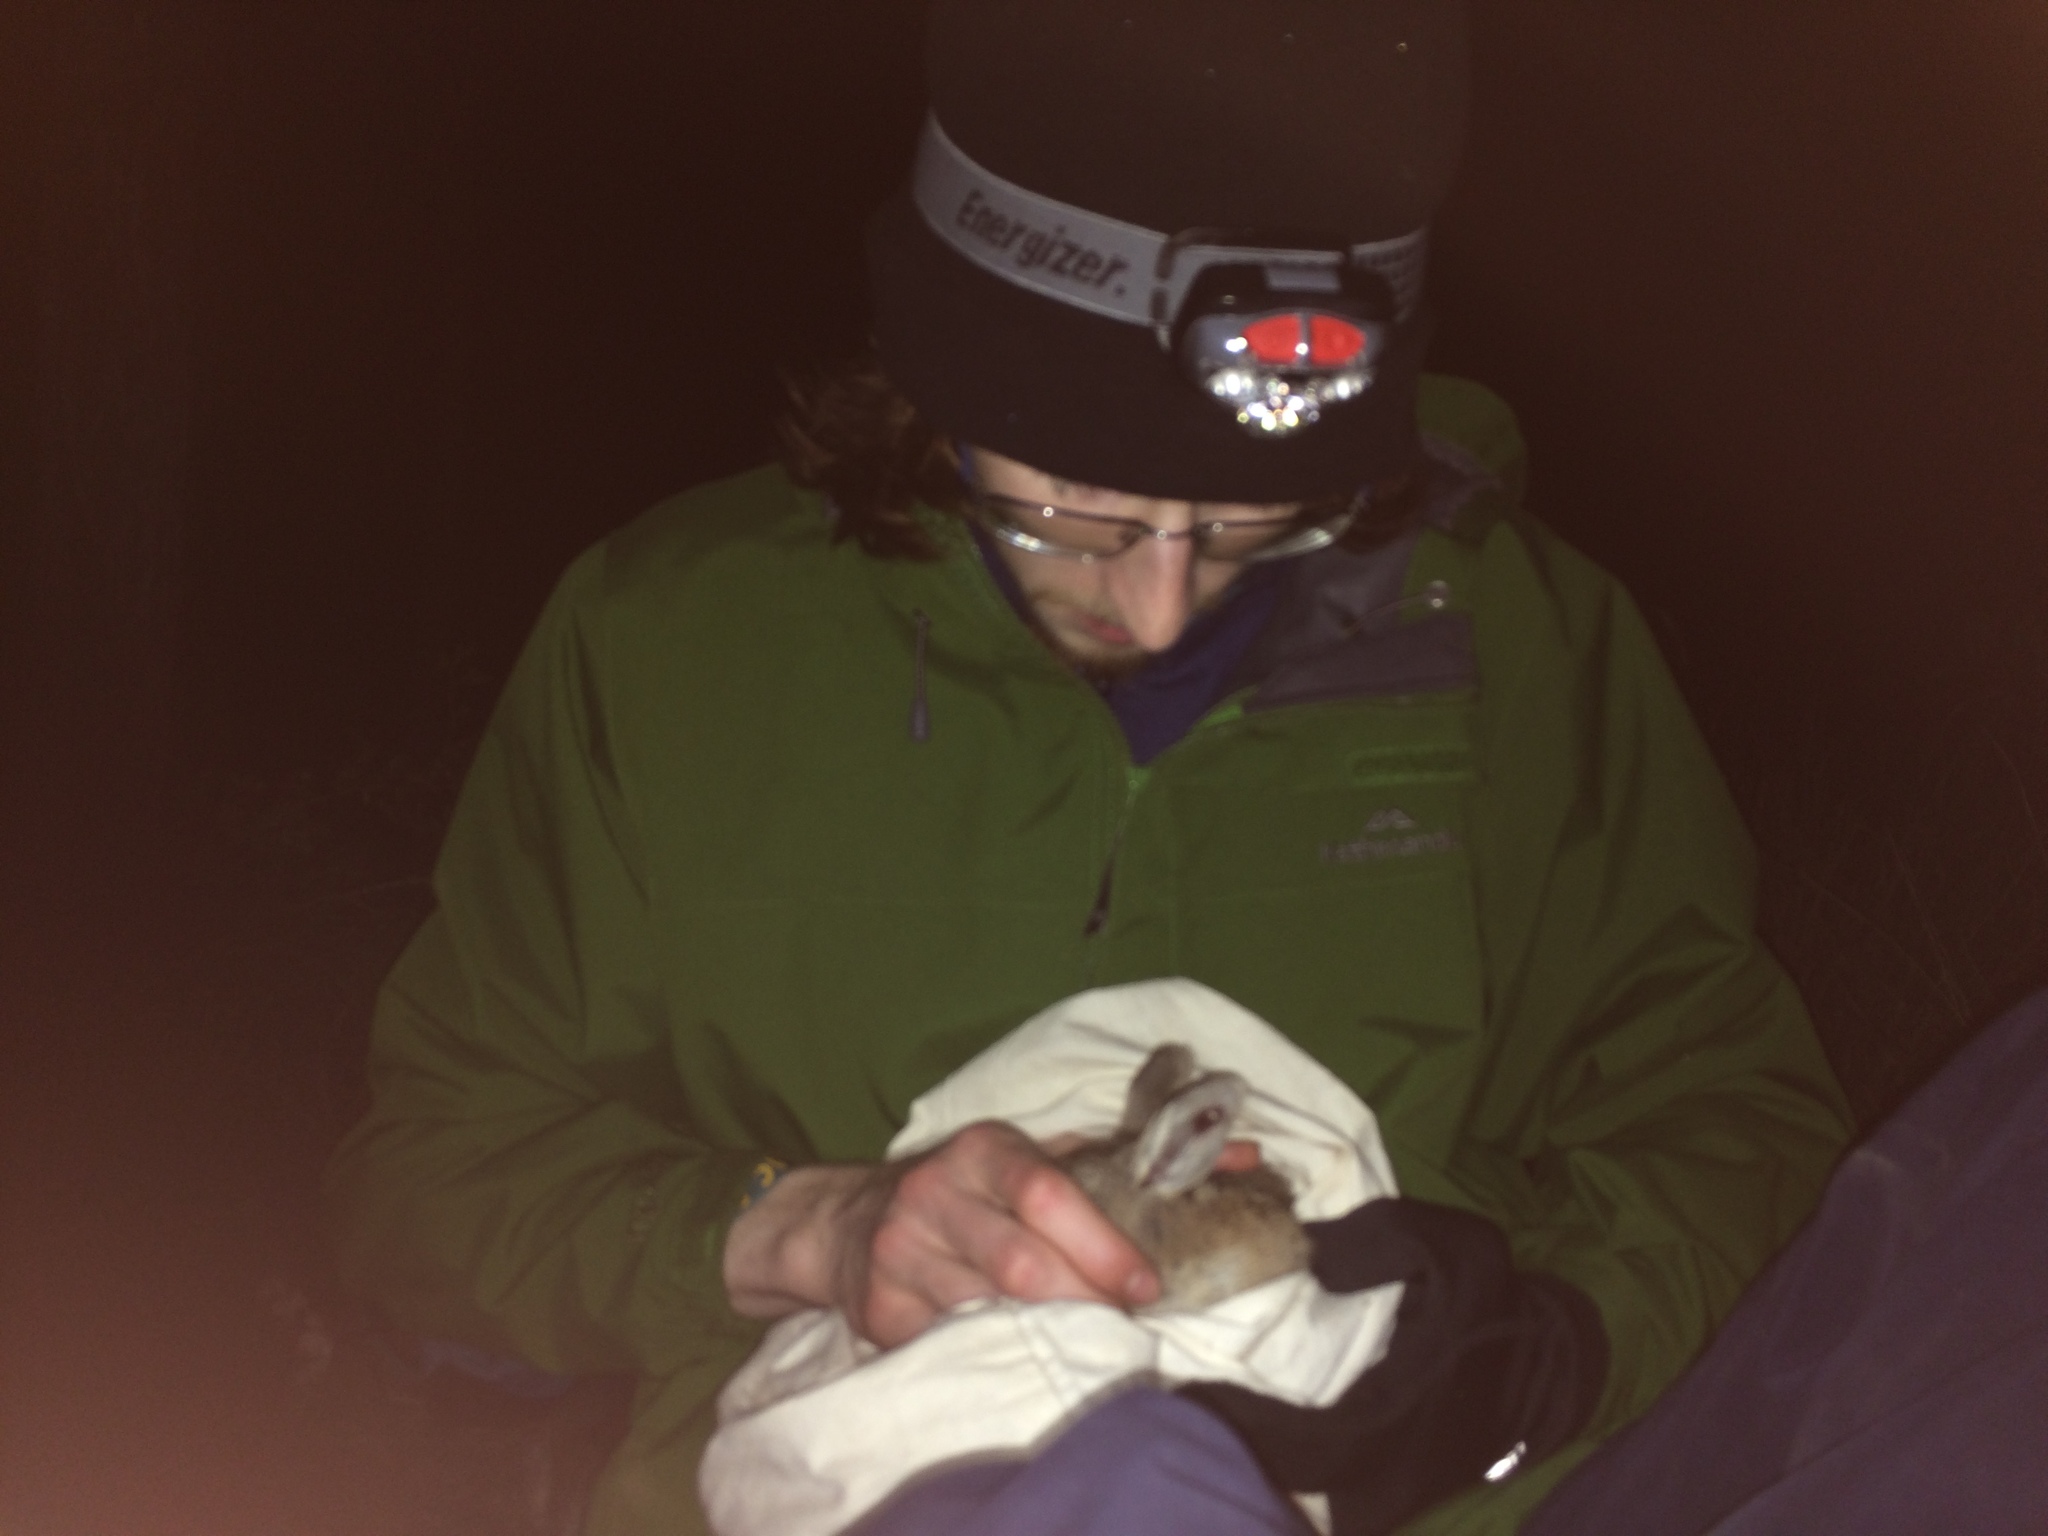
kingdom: Animalia
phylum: Chordata
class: Mammalia
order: Diprotodontia
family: Macropodidae
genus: Onychogalea
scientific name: Onychogalea fraenata
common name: Bridled nail-tail wallaby
